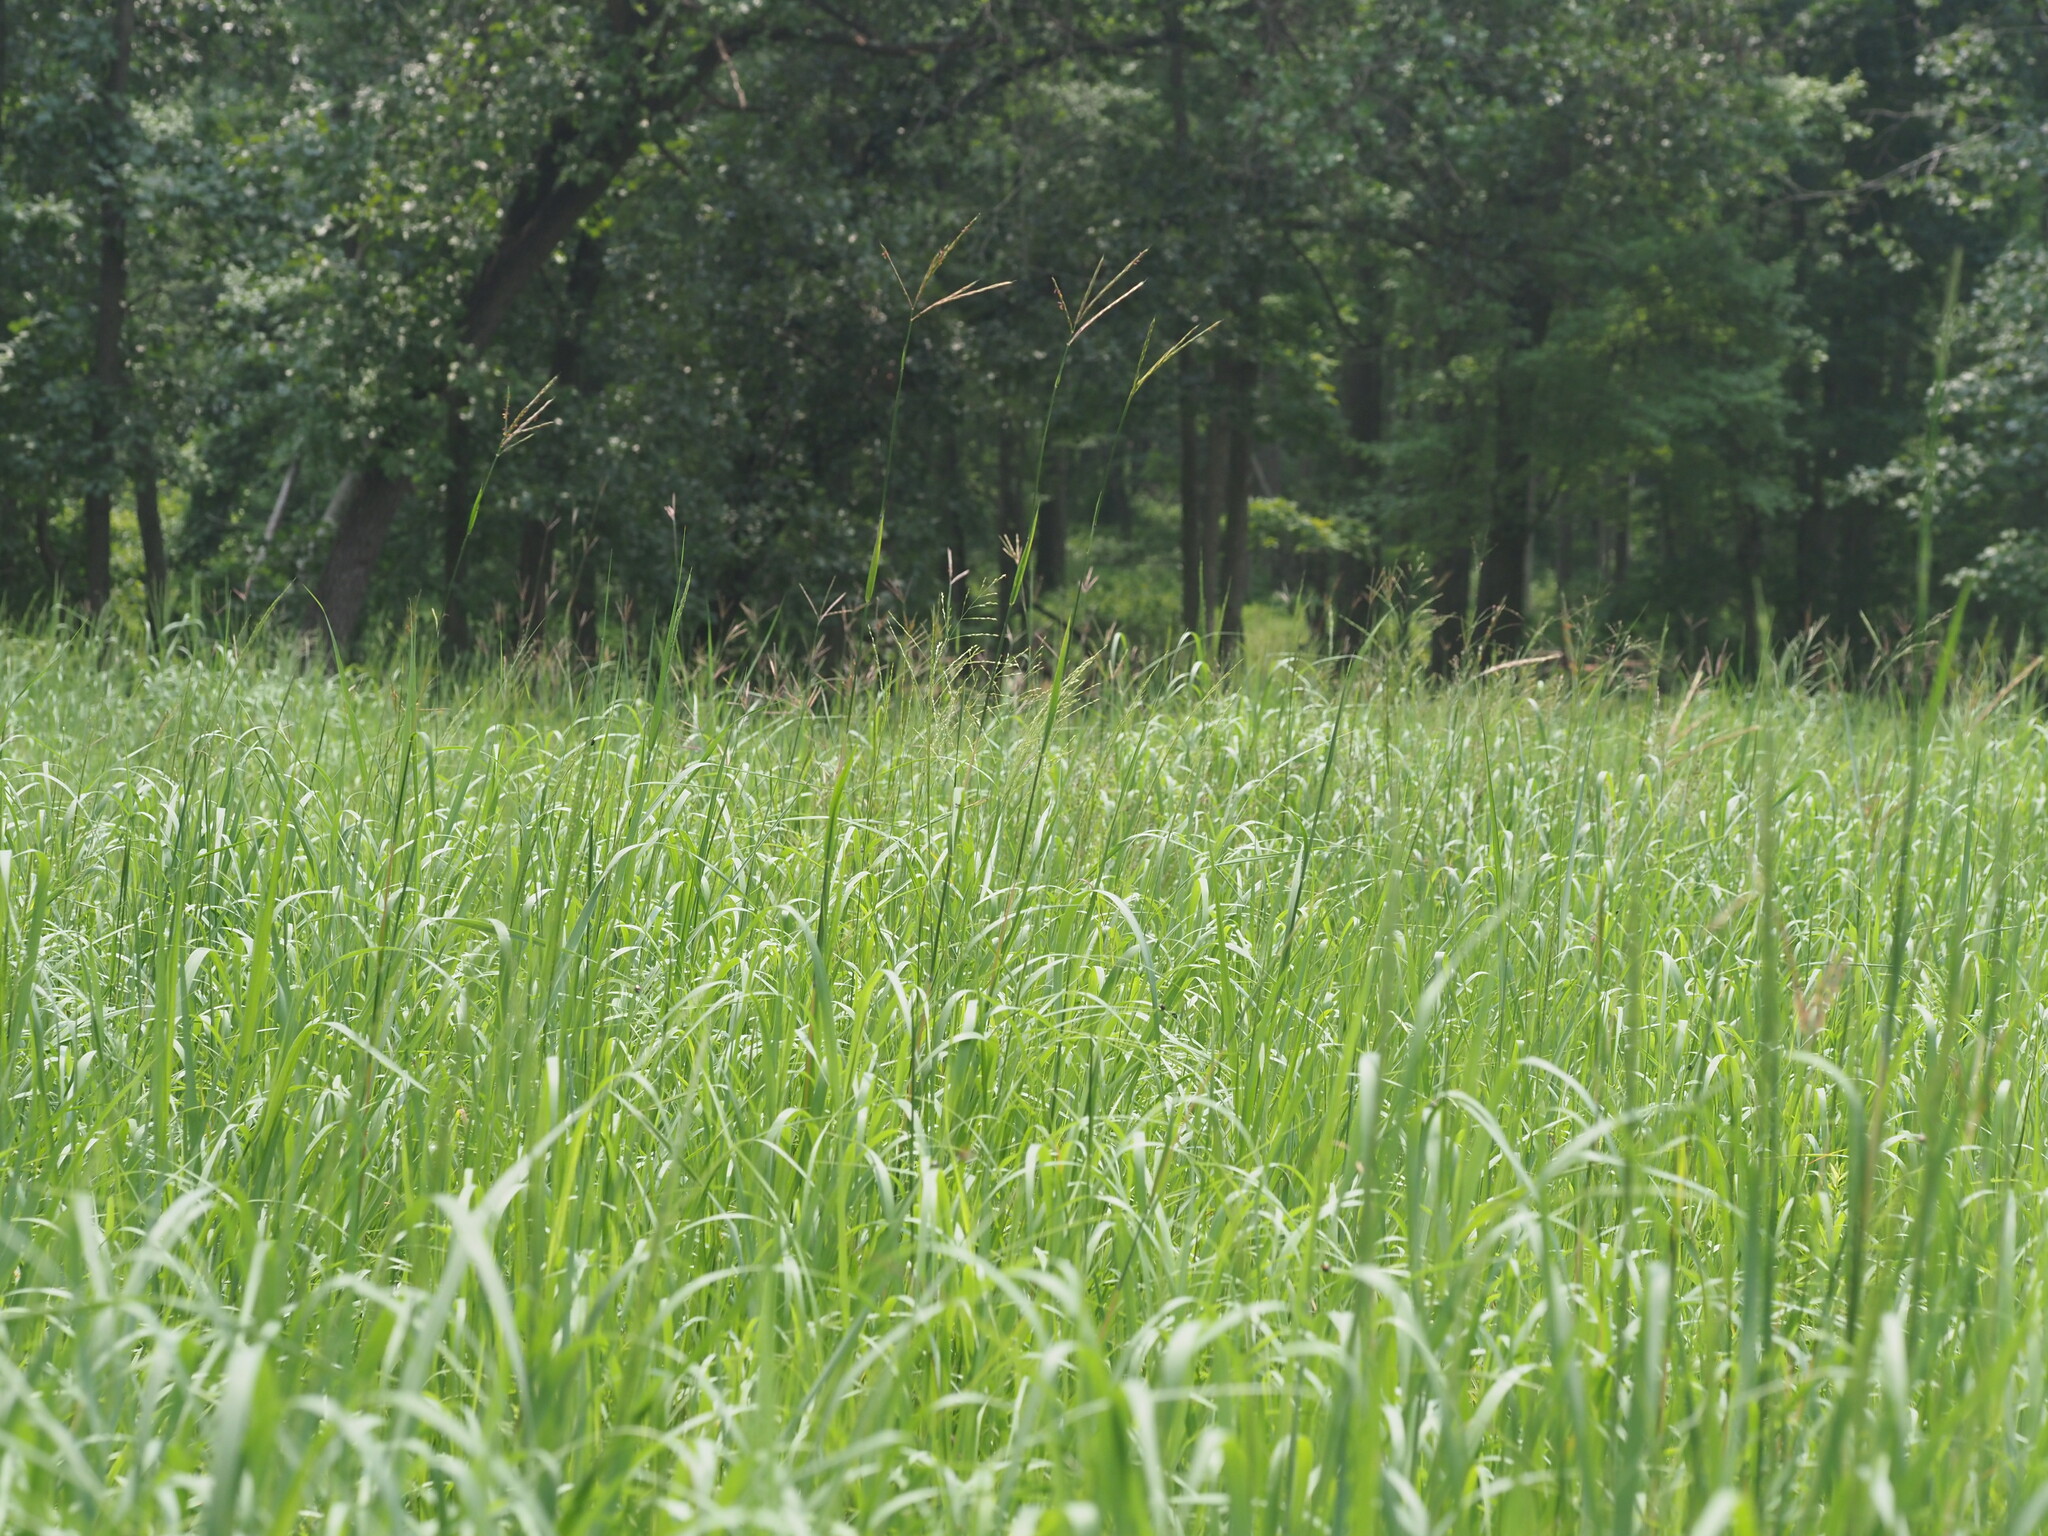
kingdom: Plantae
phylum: Tracheophyta
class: Liliopsida
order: Poales
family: Poaceae
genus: Andropogon
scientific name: Andropogon gerardi
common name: Big bluestem
